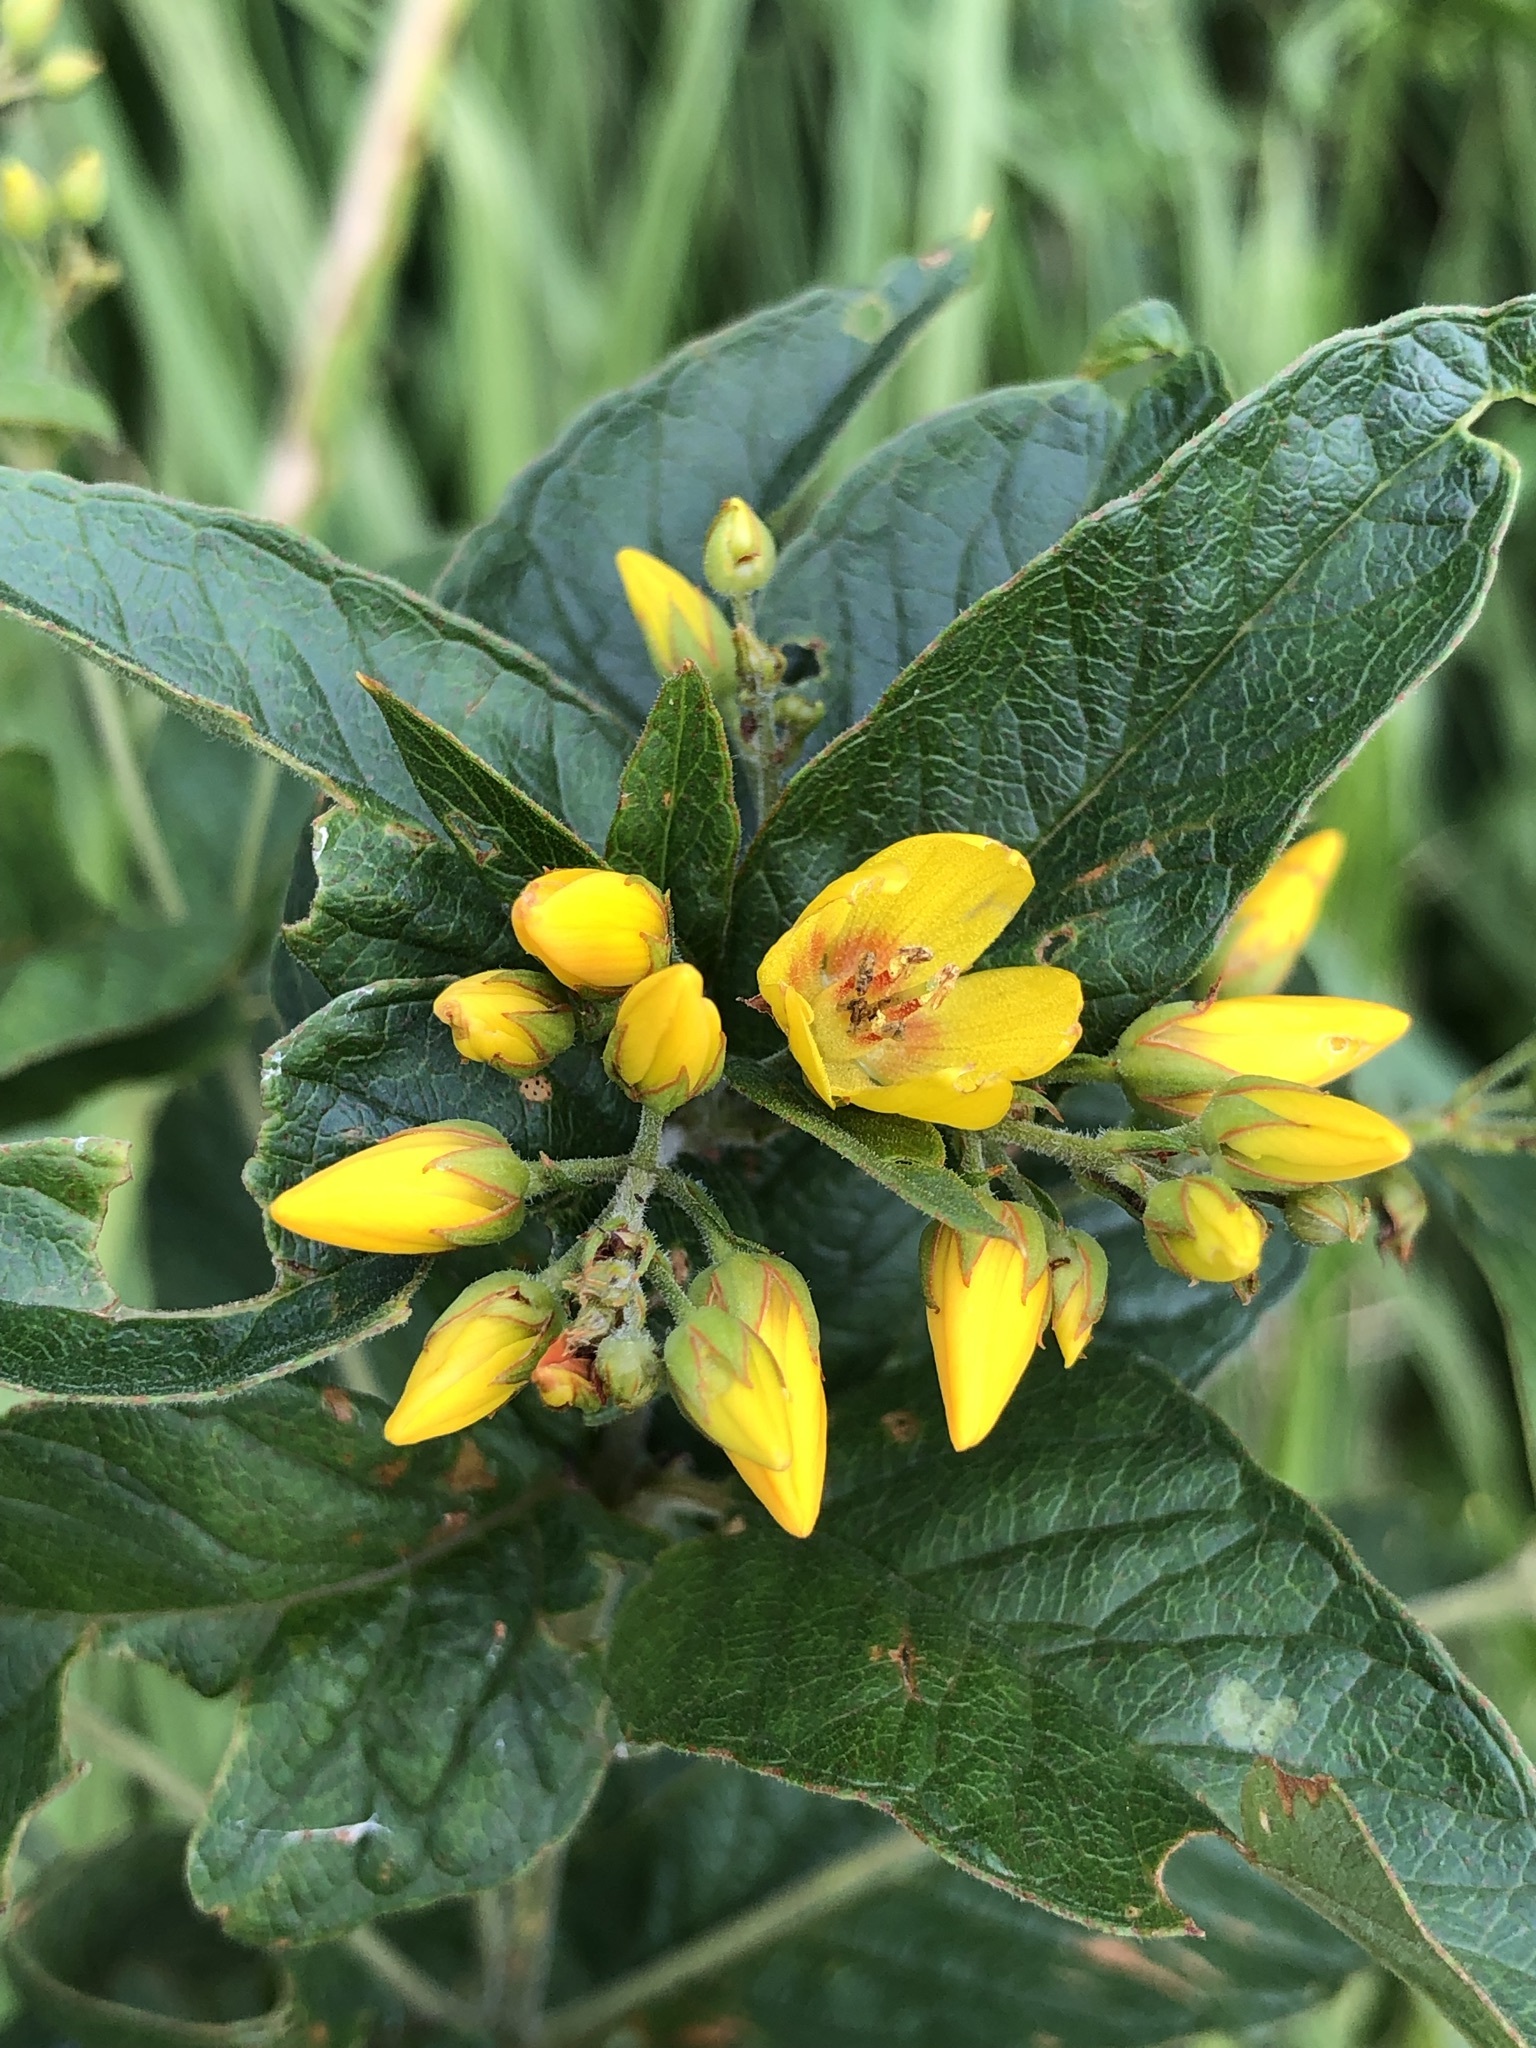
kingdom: Plantae
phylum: Tracheophyta
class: Magnoliopsida
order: Ericales
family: Primulaceae
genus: Lysimachia
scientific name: Lysimachia vulgaris
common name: Yellow loosestrife
